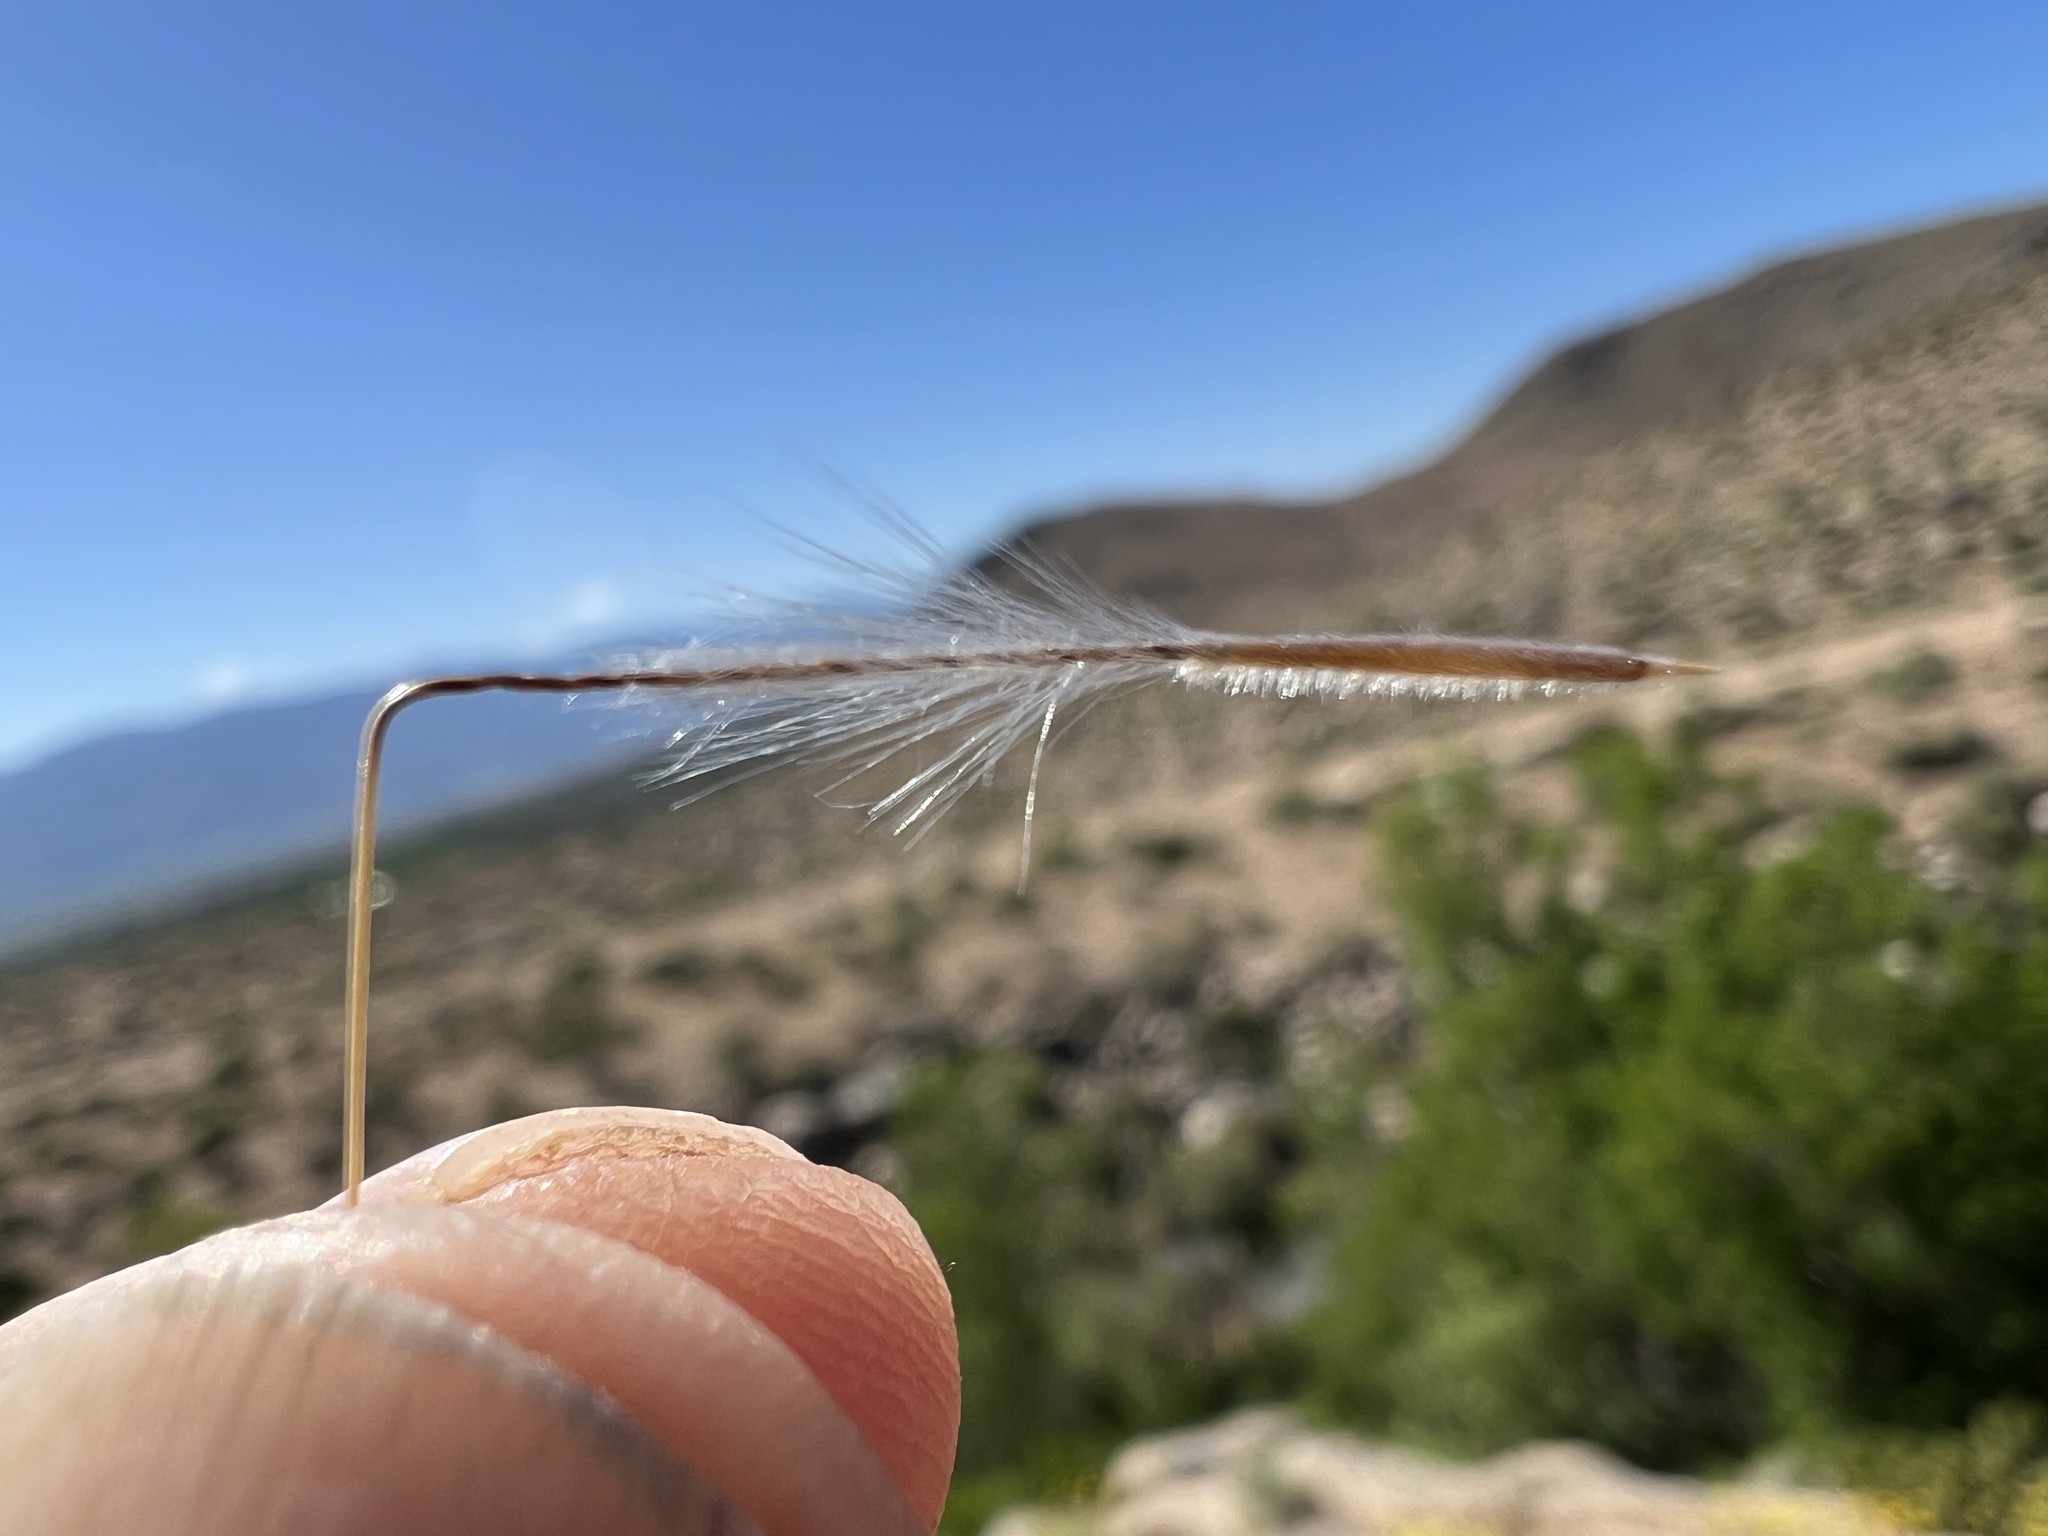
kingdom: Plantae
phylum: Tracheophyta
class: Liliopsida
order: Poales
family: Poaceae
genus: Pappostipa
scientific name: Pappostipa speciosa
